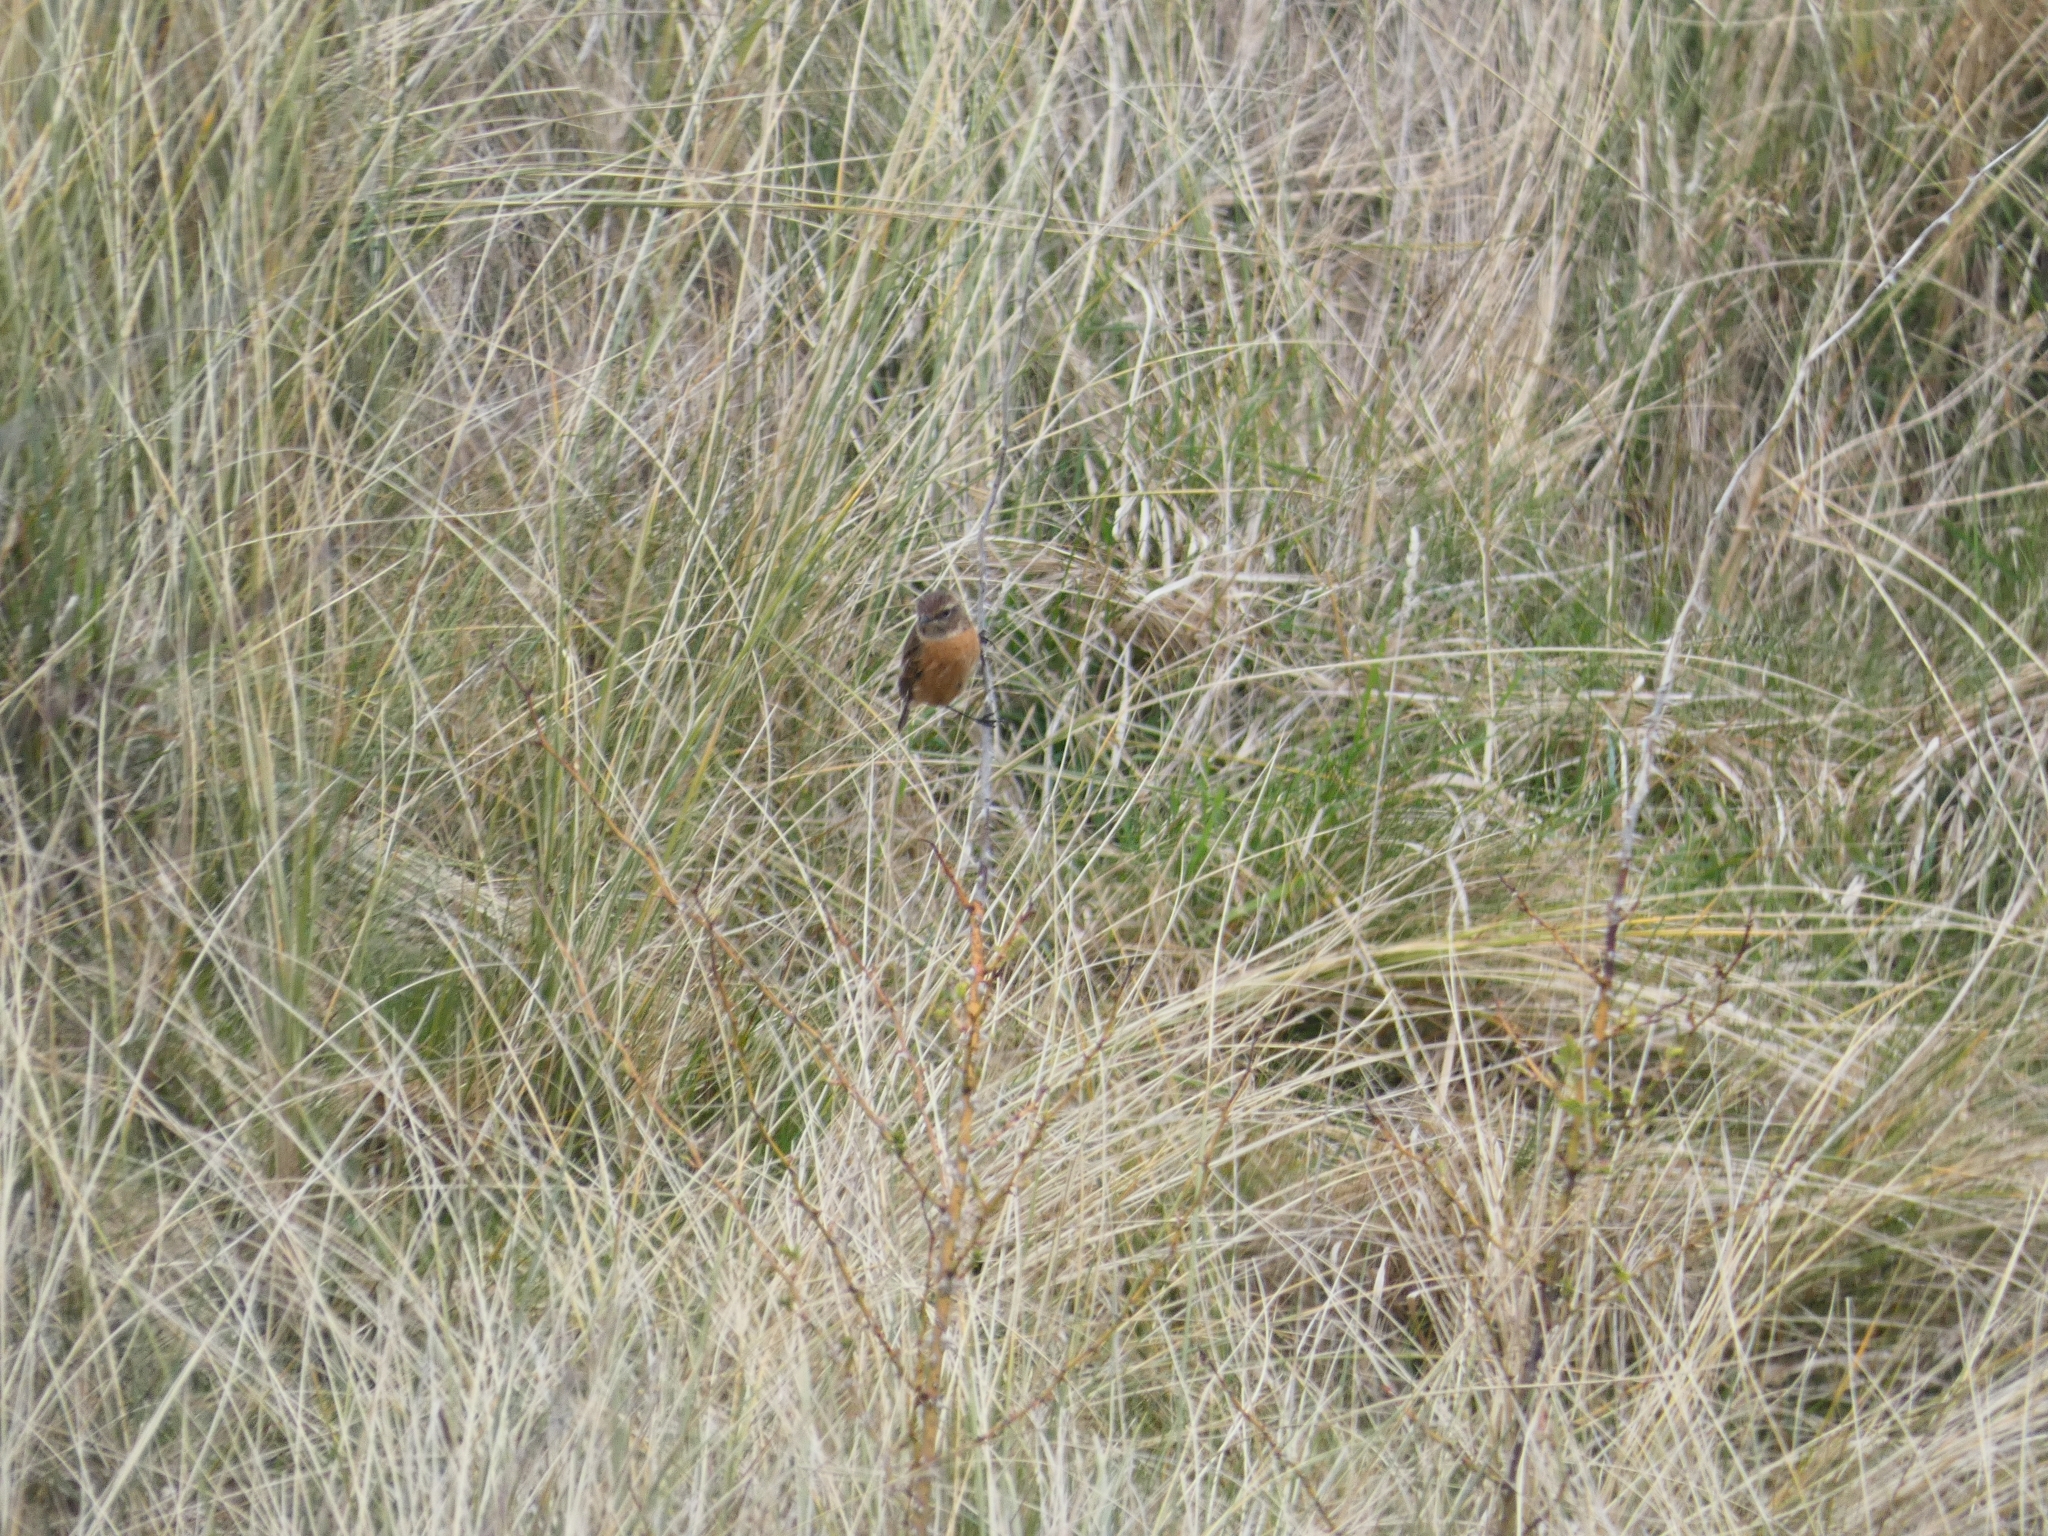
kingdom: Animalia
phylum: Chordata
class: Aves
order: Passeriformes
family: Muscicapidae
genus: Saxicola
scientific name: Saxicola rubicola
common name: European stonechat
